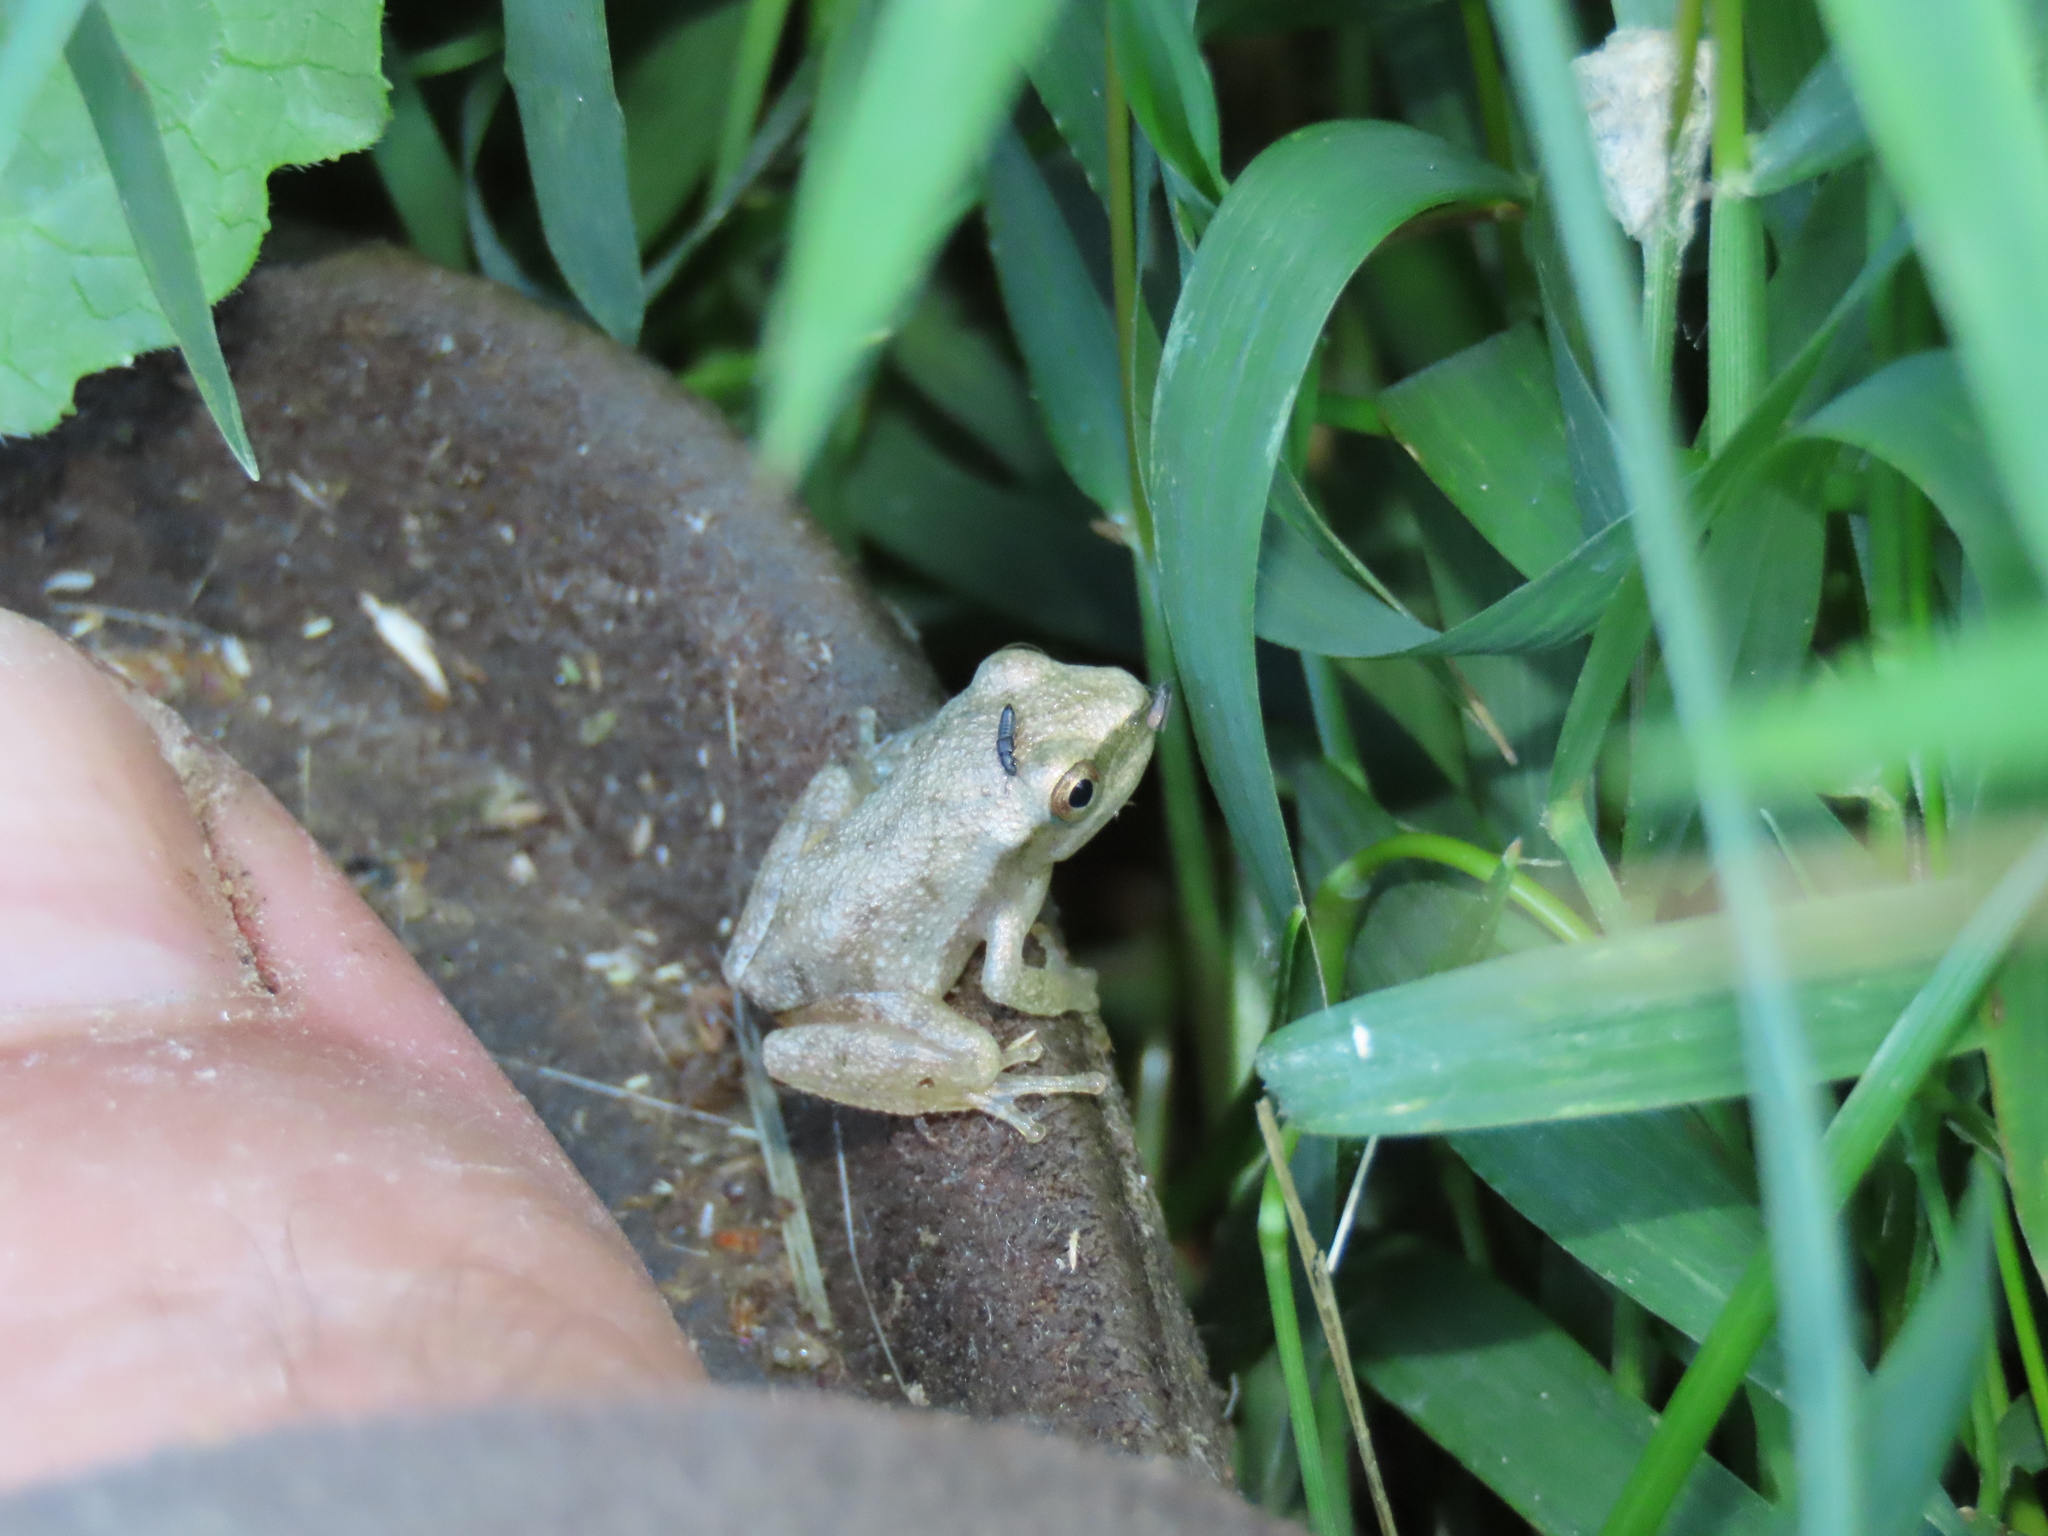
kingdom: Animalia
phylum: Chordata
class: Amphibia
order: Anura
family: Hylidae
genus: Pseudacris
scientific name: Pseudacris crucifer
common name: Spring peeper
